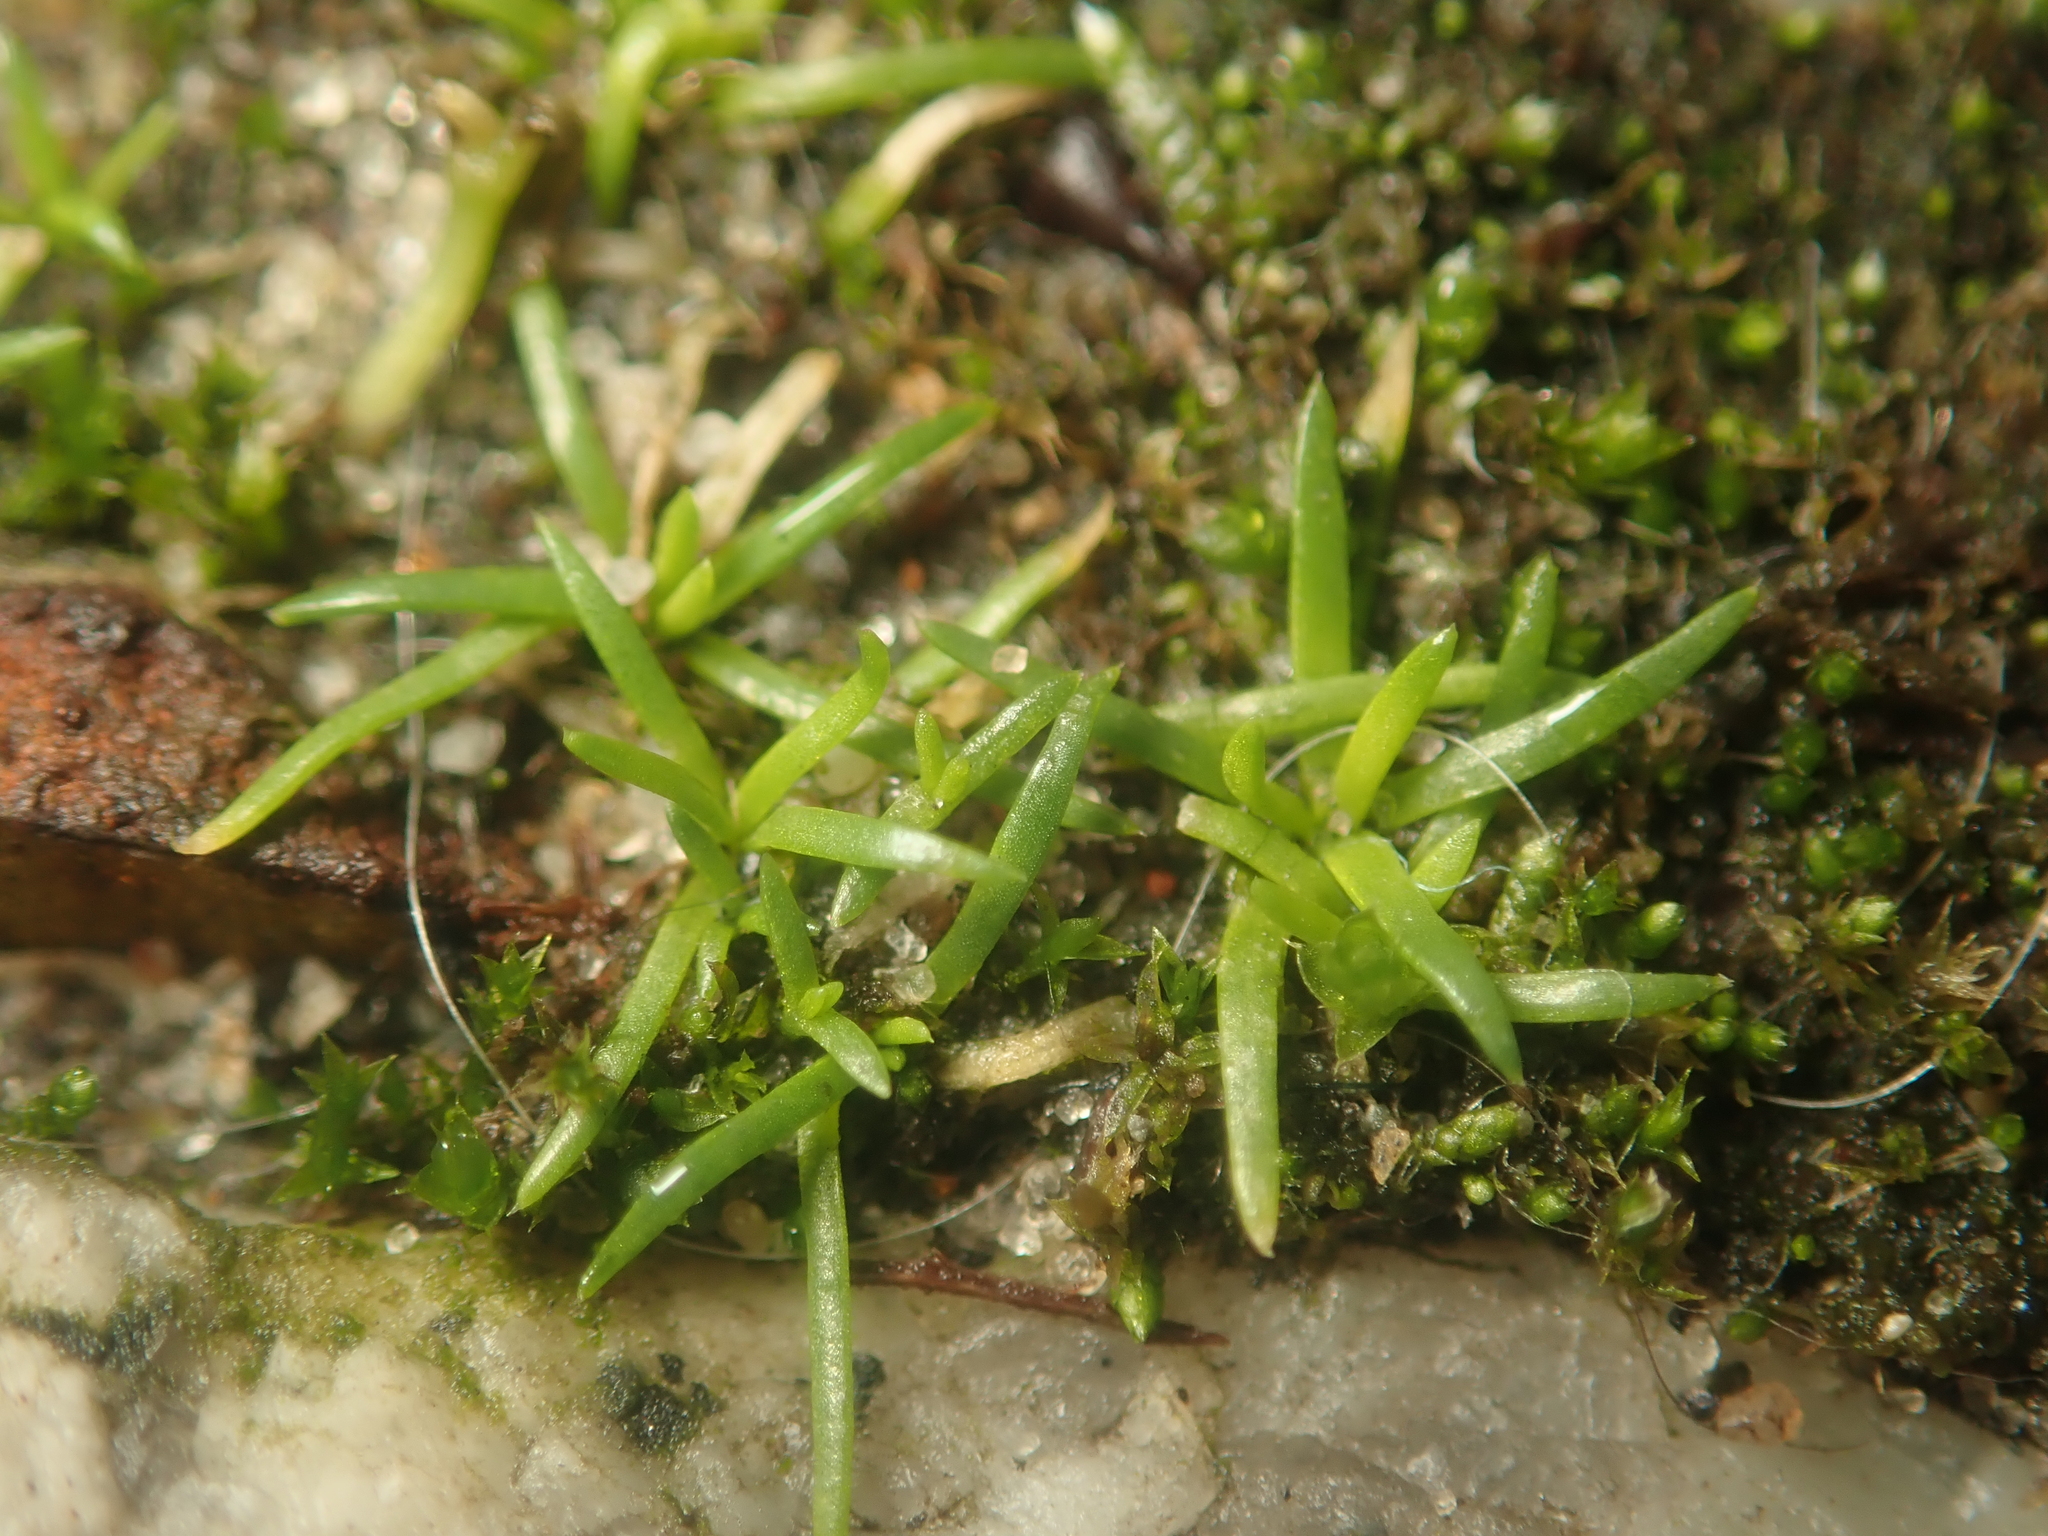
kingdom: Plantae
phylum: Tracheophyta
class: Magnoliopsida
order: Caryophyllales
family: Caryophyllaceae
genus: Sagina
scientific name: Sagina procumbens
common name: Procumbent pearlwort
